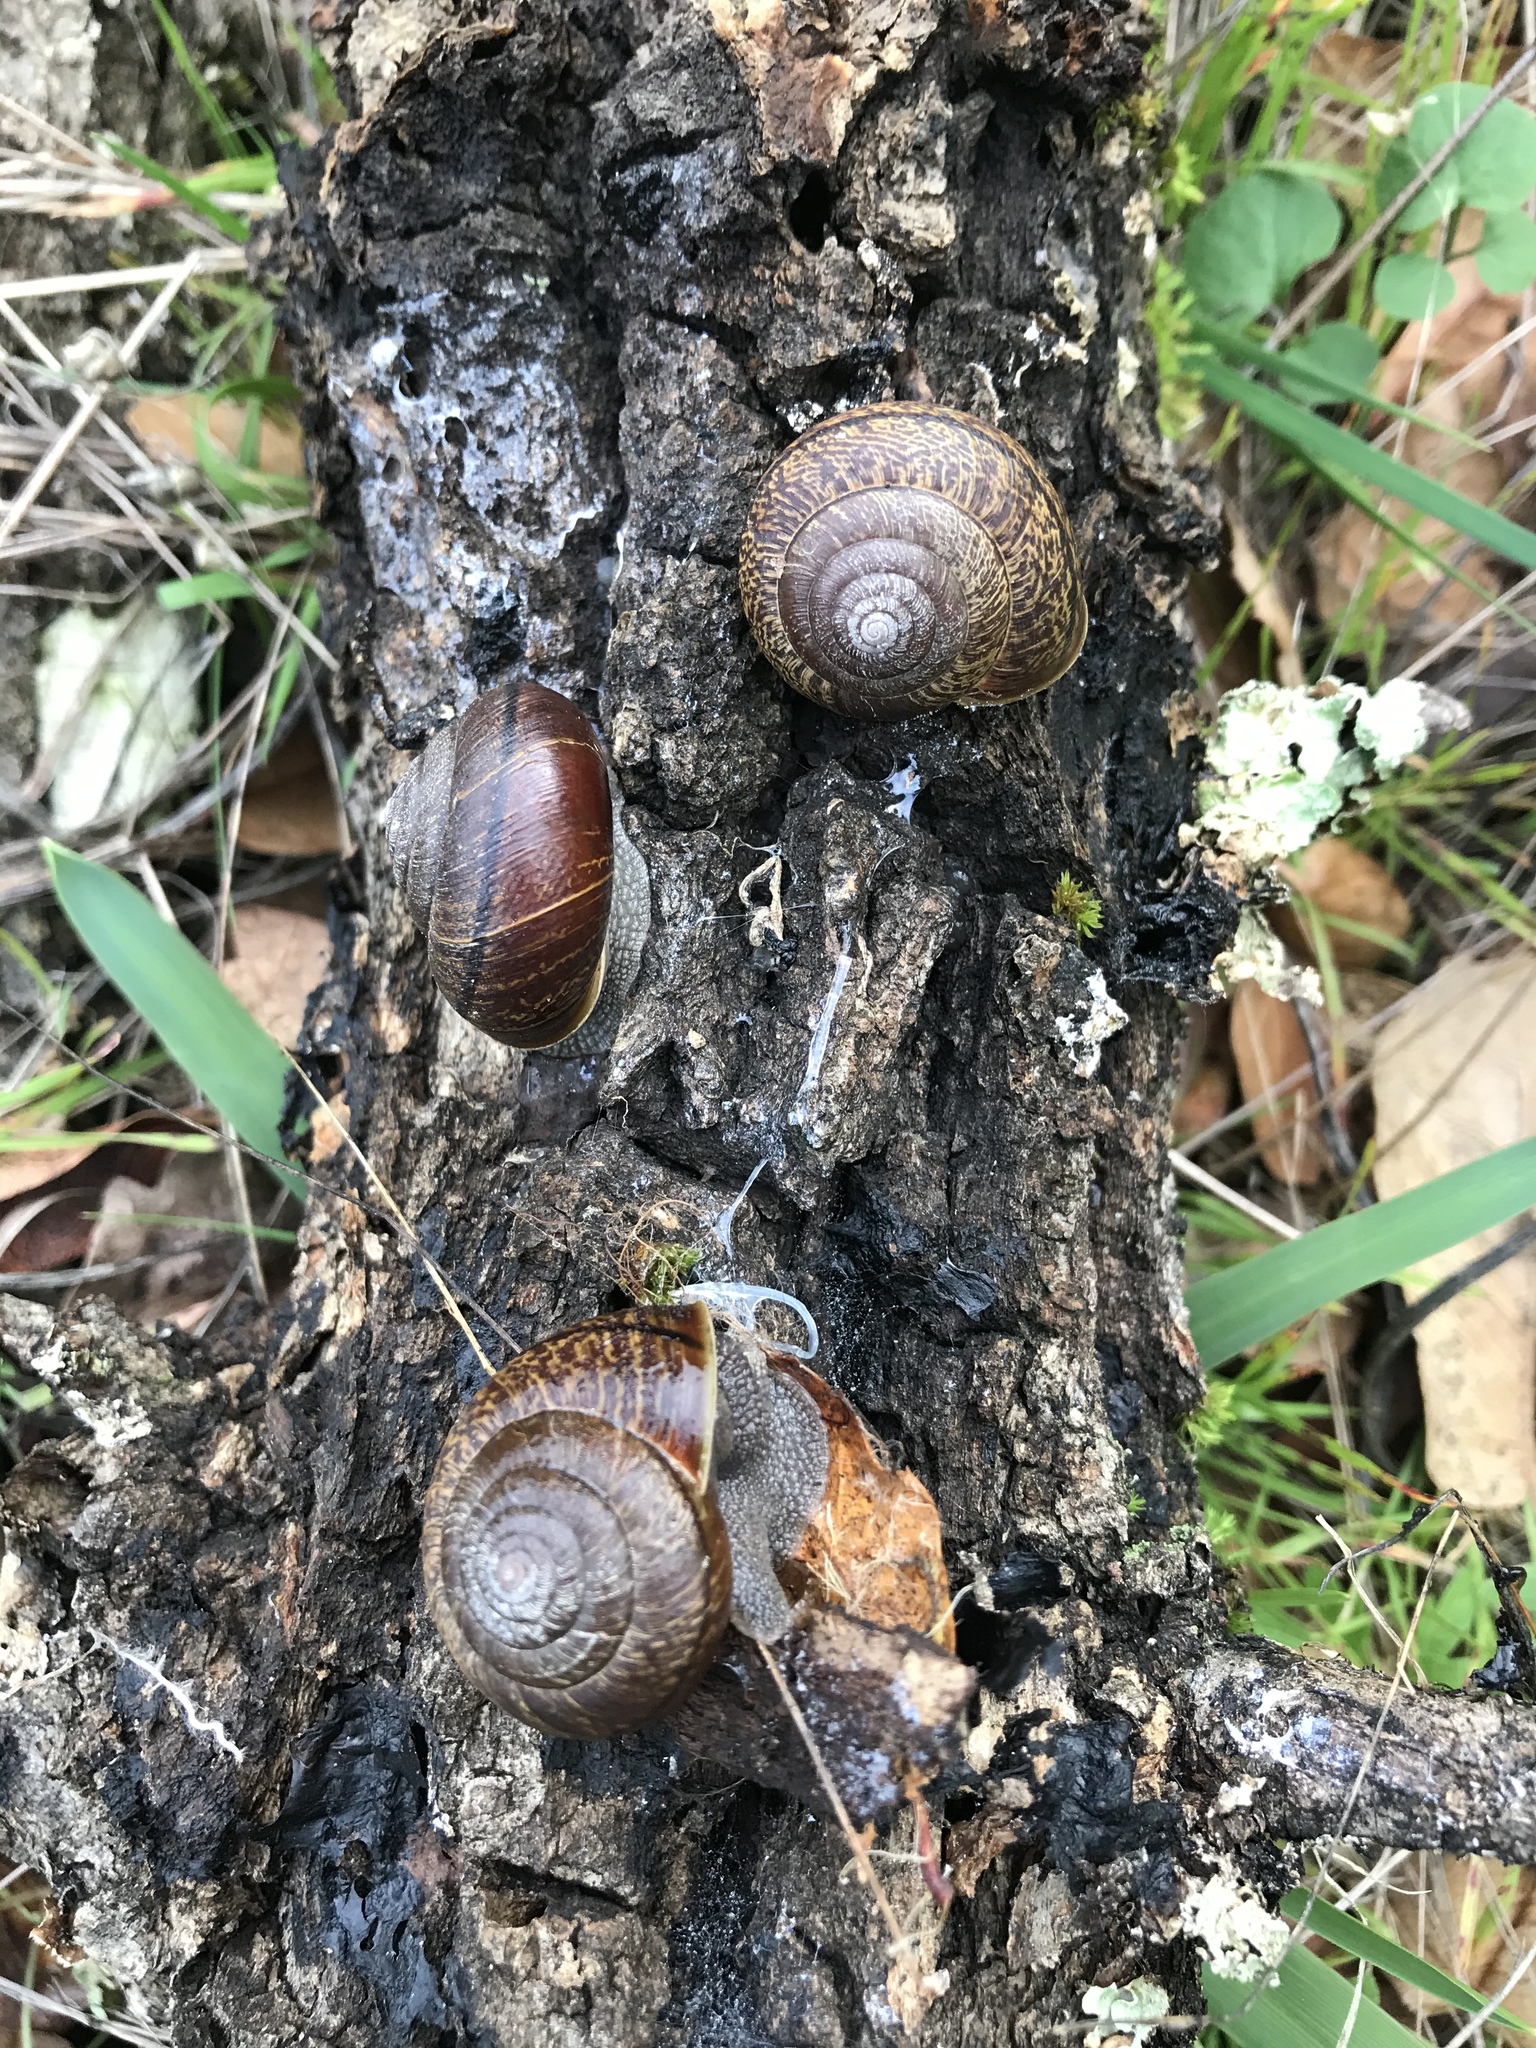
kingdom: Animalia
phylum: Mollusca
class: Gastropoda
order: Stylommatophora
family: Xanthonychidae
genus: Helminthoglypta
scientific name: Helminthoglypta arrosa
